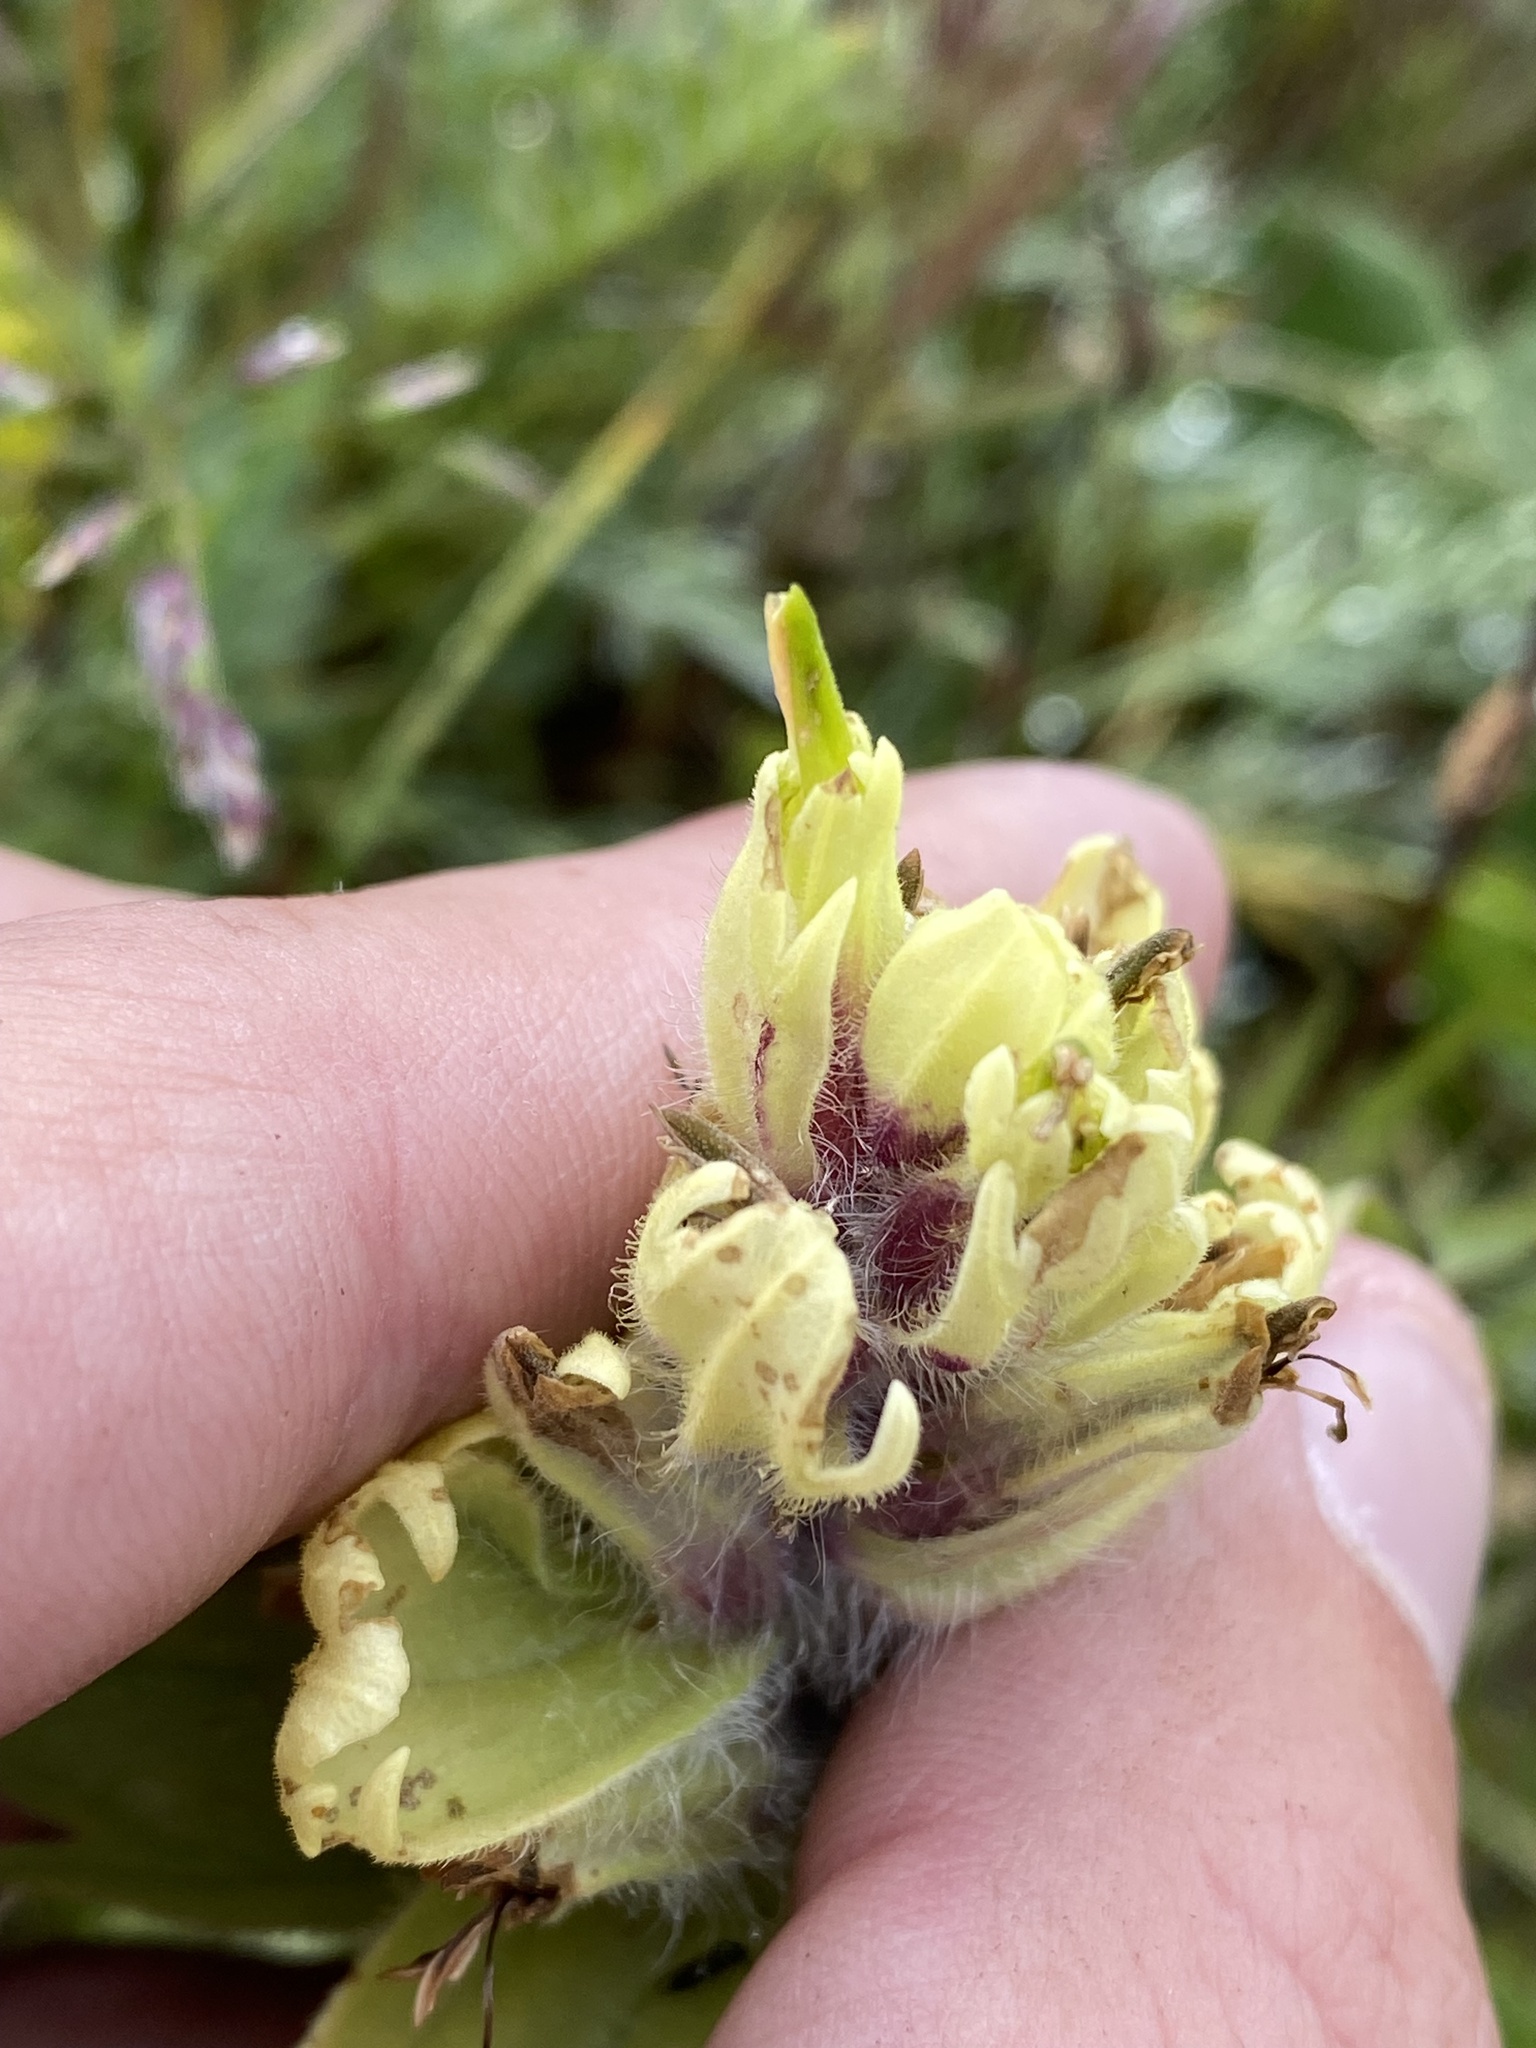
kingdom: Plantae
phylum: Tracheophyta
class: Magnoliopsida
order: Lamiales
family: Orobanchaceae
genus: Castilleja
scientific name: Castilleja occidentalis
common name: Western paintbrush
